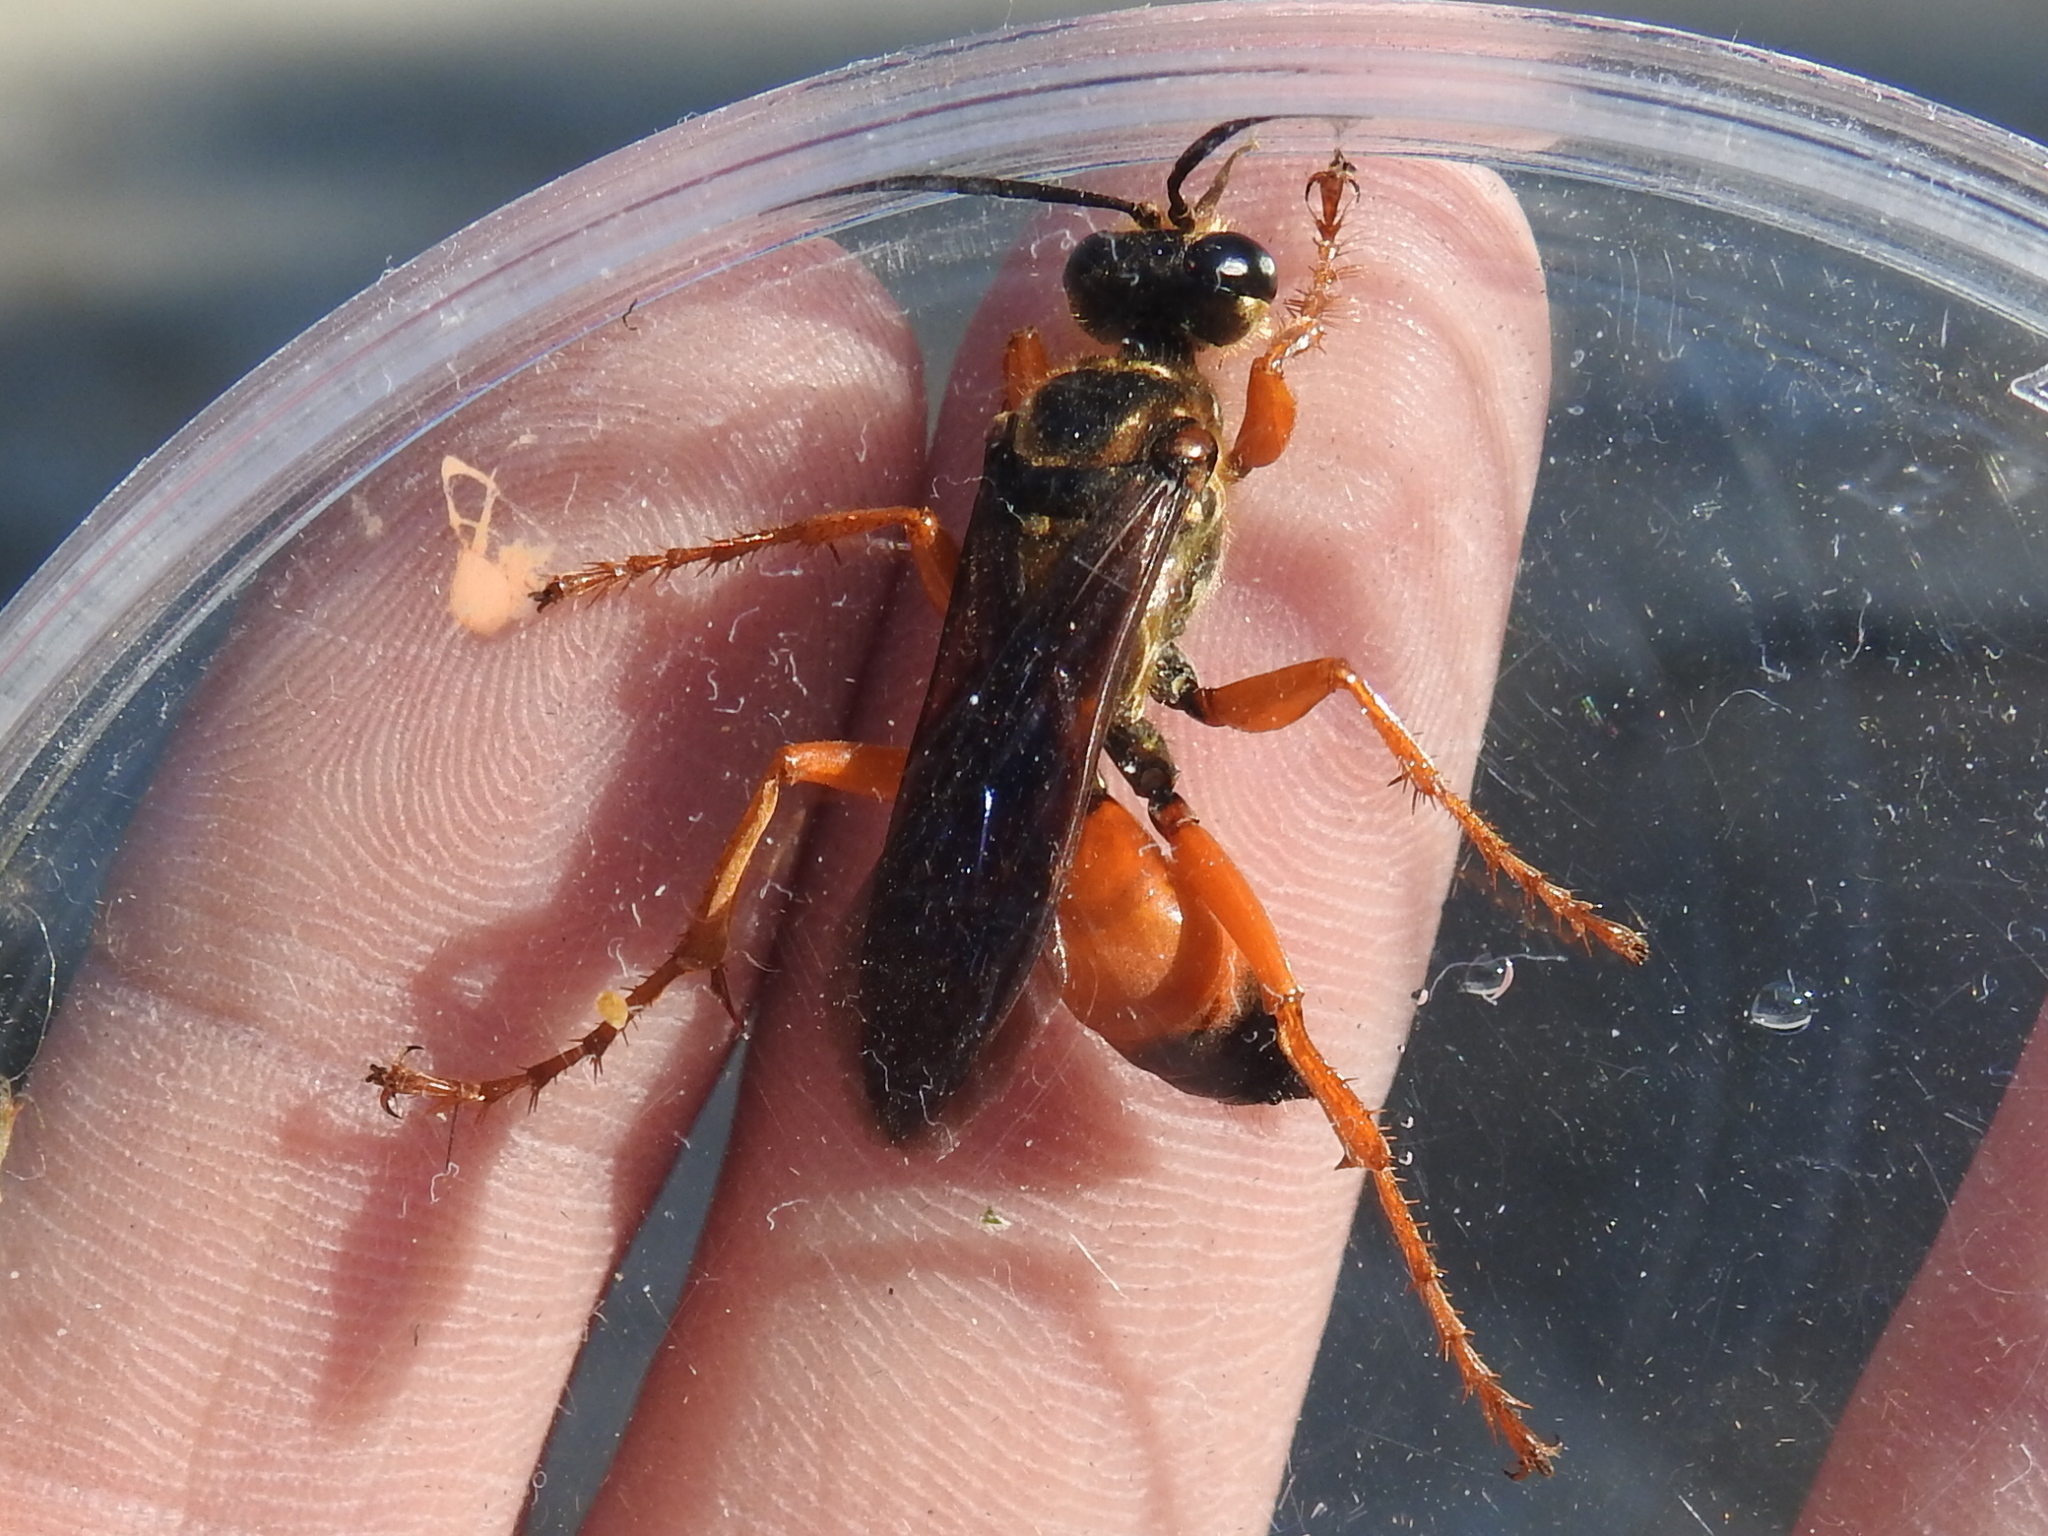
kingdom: Animalia
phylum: Arthropoda
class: Insecta
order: Hymenoptera
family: Sphecidae
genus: Sphex
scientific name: Sphex ichneumoneus
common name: Great golden digger wasp
